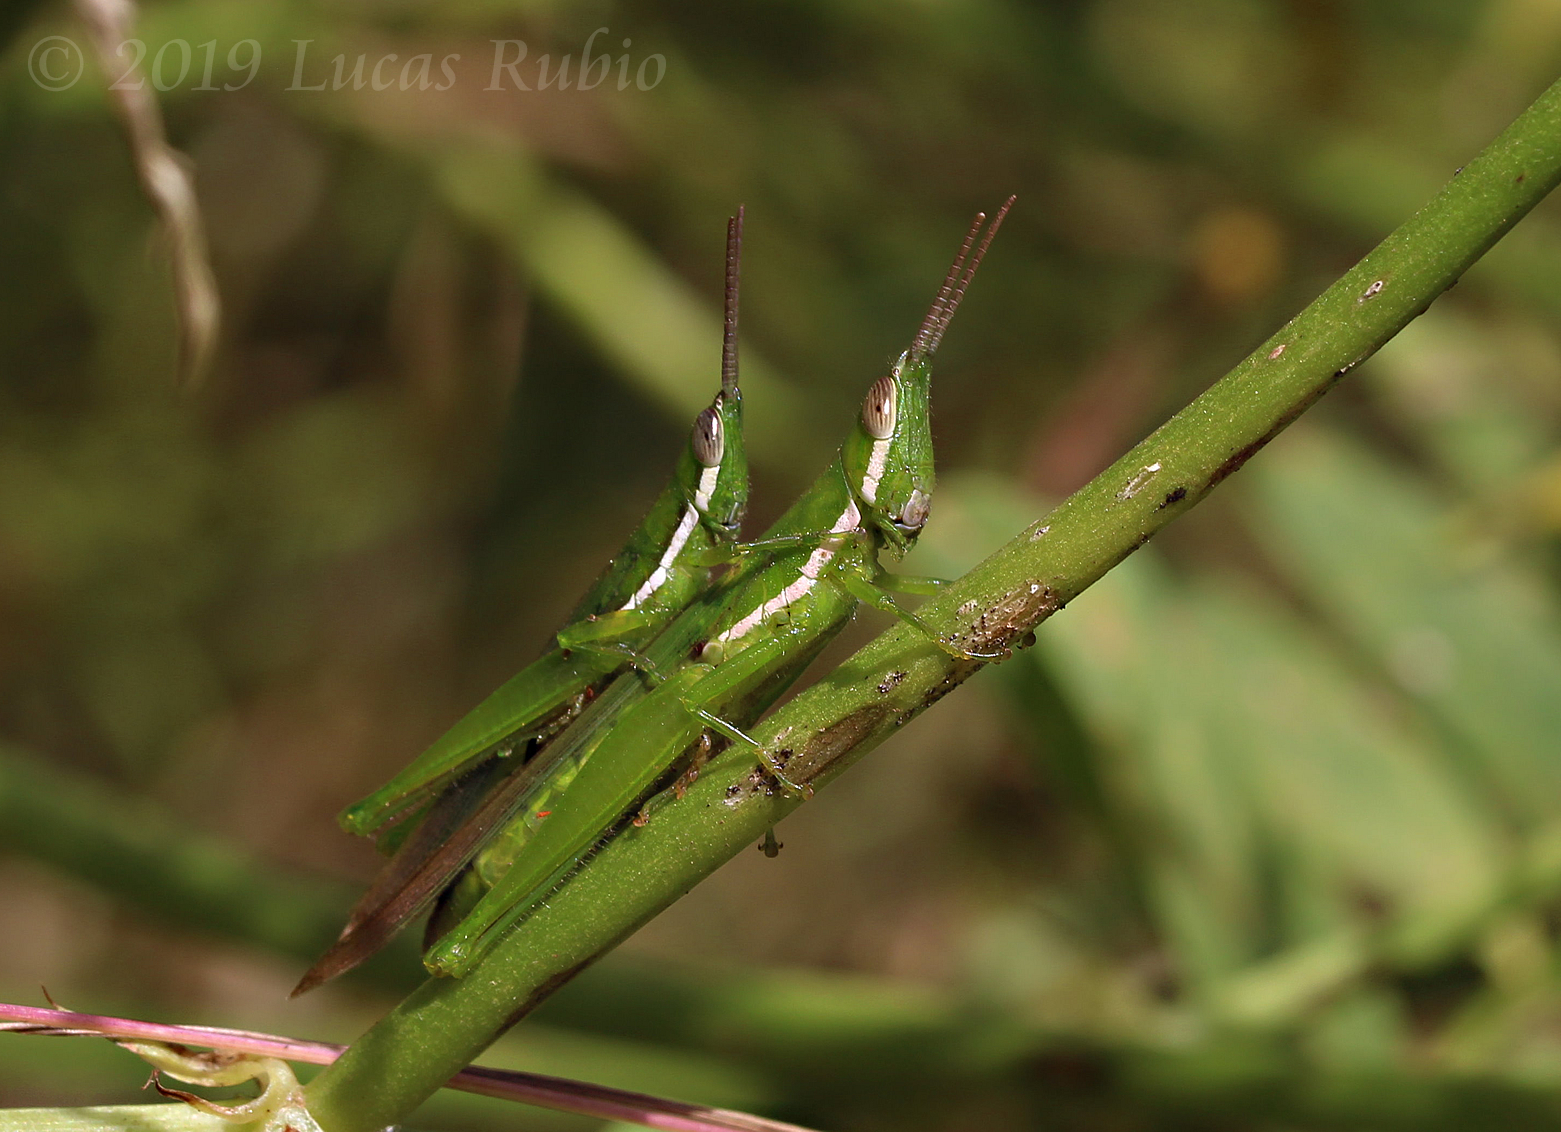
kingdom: Animalia
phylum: Arthropoda
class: Insecta
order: Orthoptera
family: Acrididae
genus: Tucayaca
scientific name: Tucayaca gracilis
